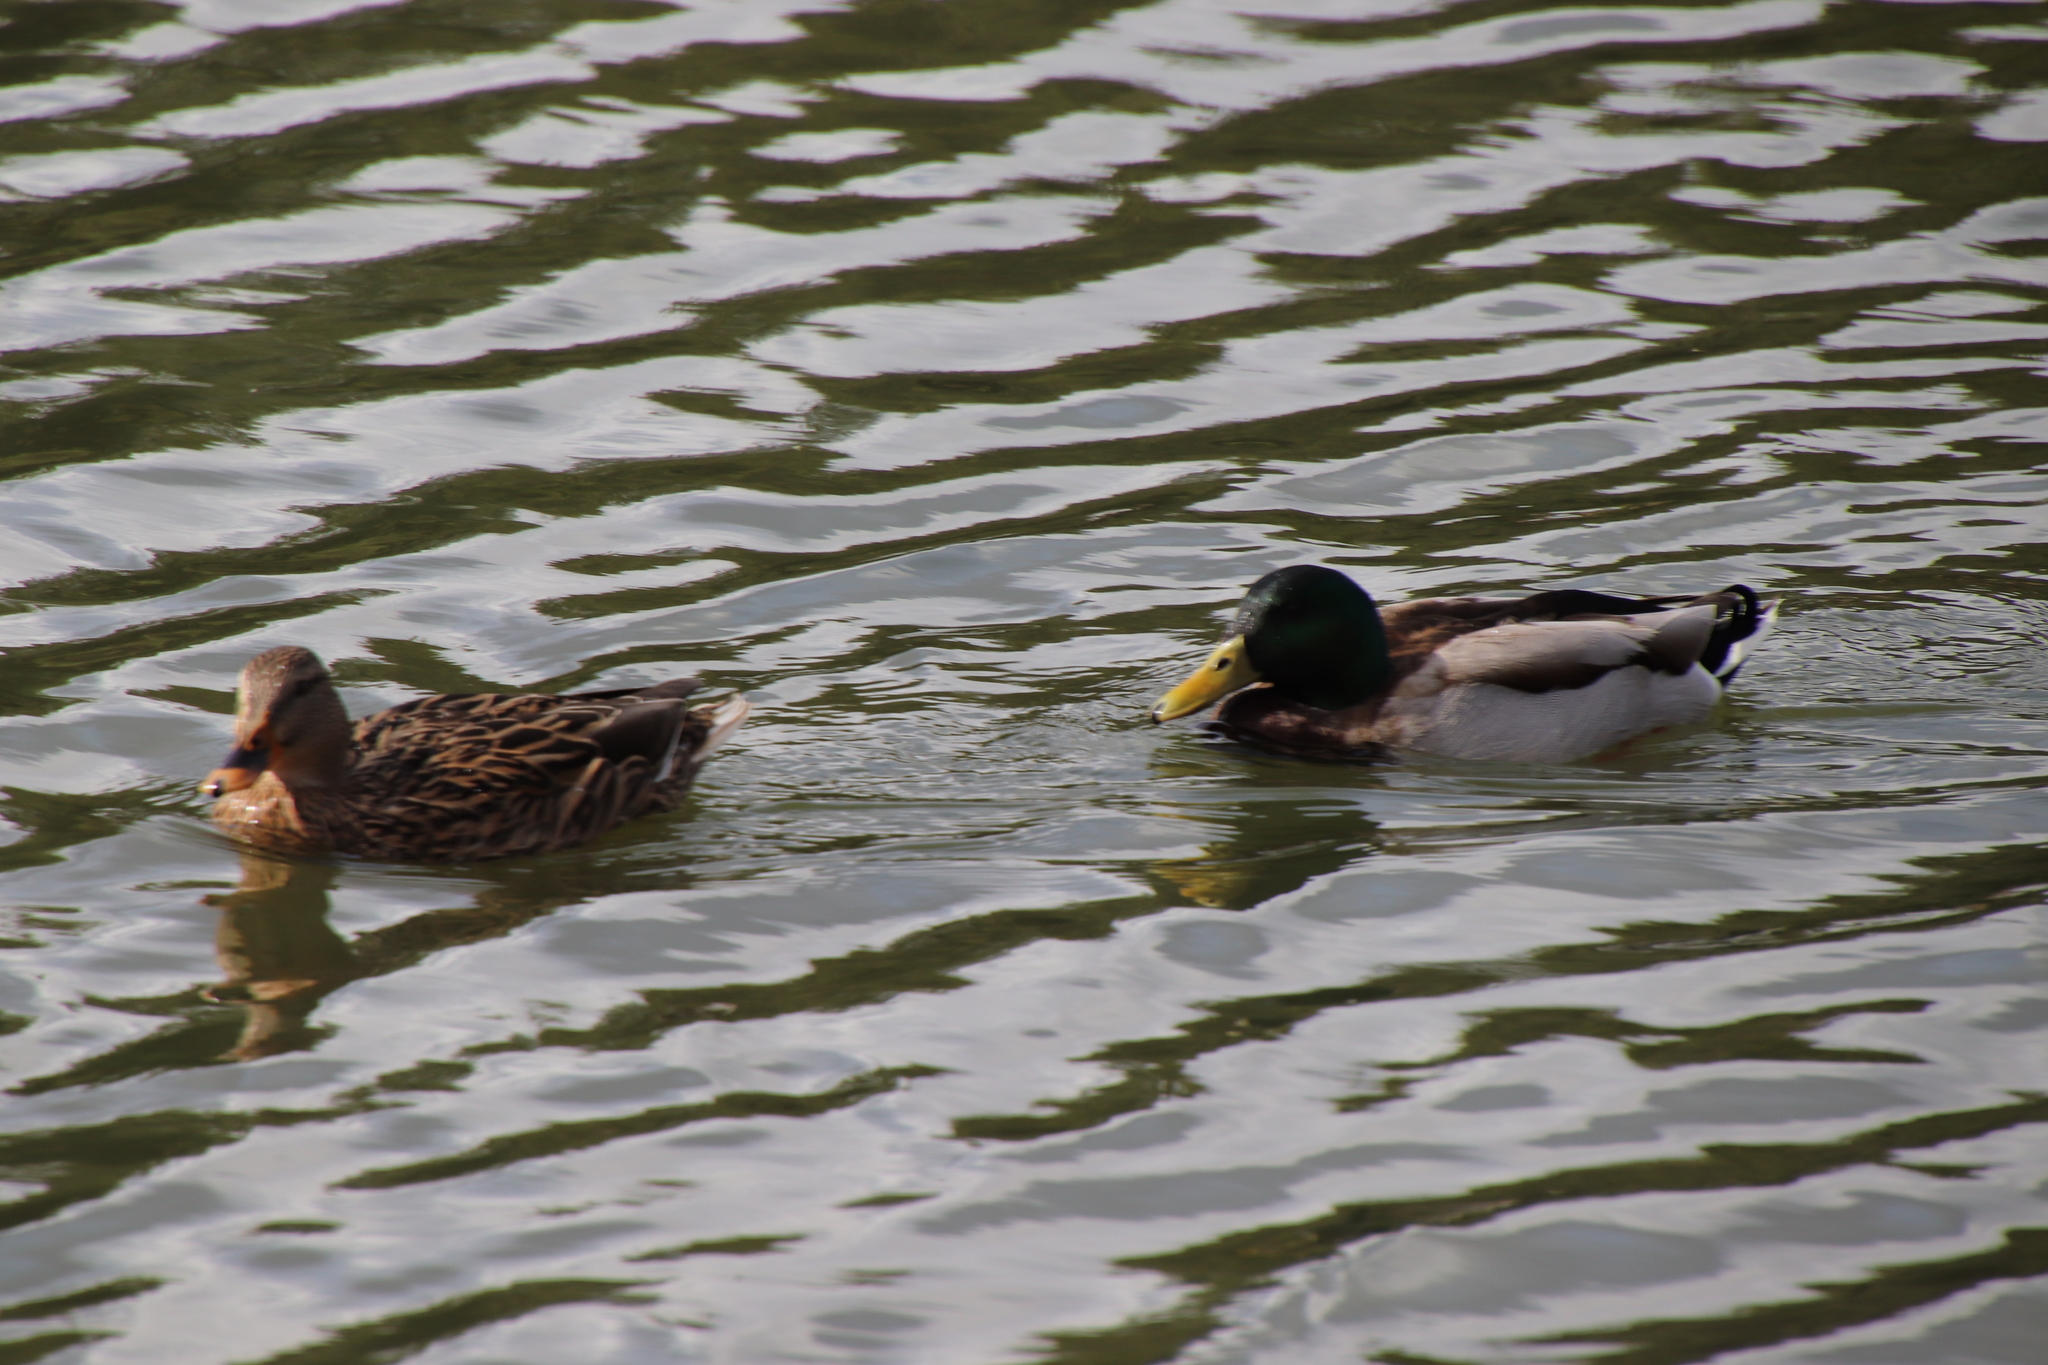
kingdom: Animalia
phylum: Chordata
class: Aves
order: Anseriformes
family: Anatidae
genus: Anas
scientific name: Anas platyrhynchos
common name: Mallard
